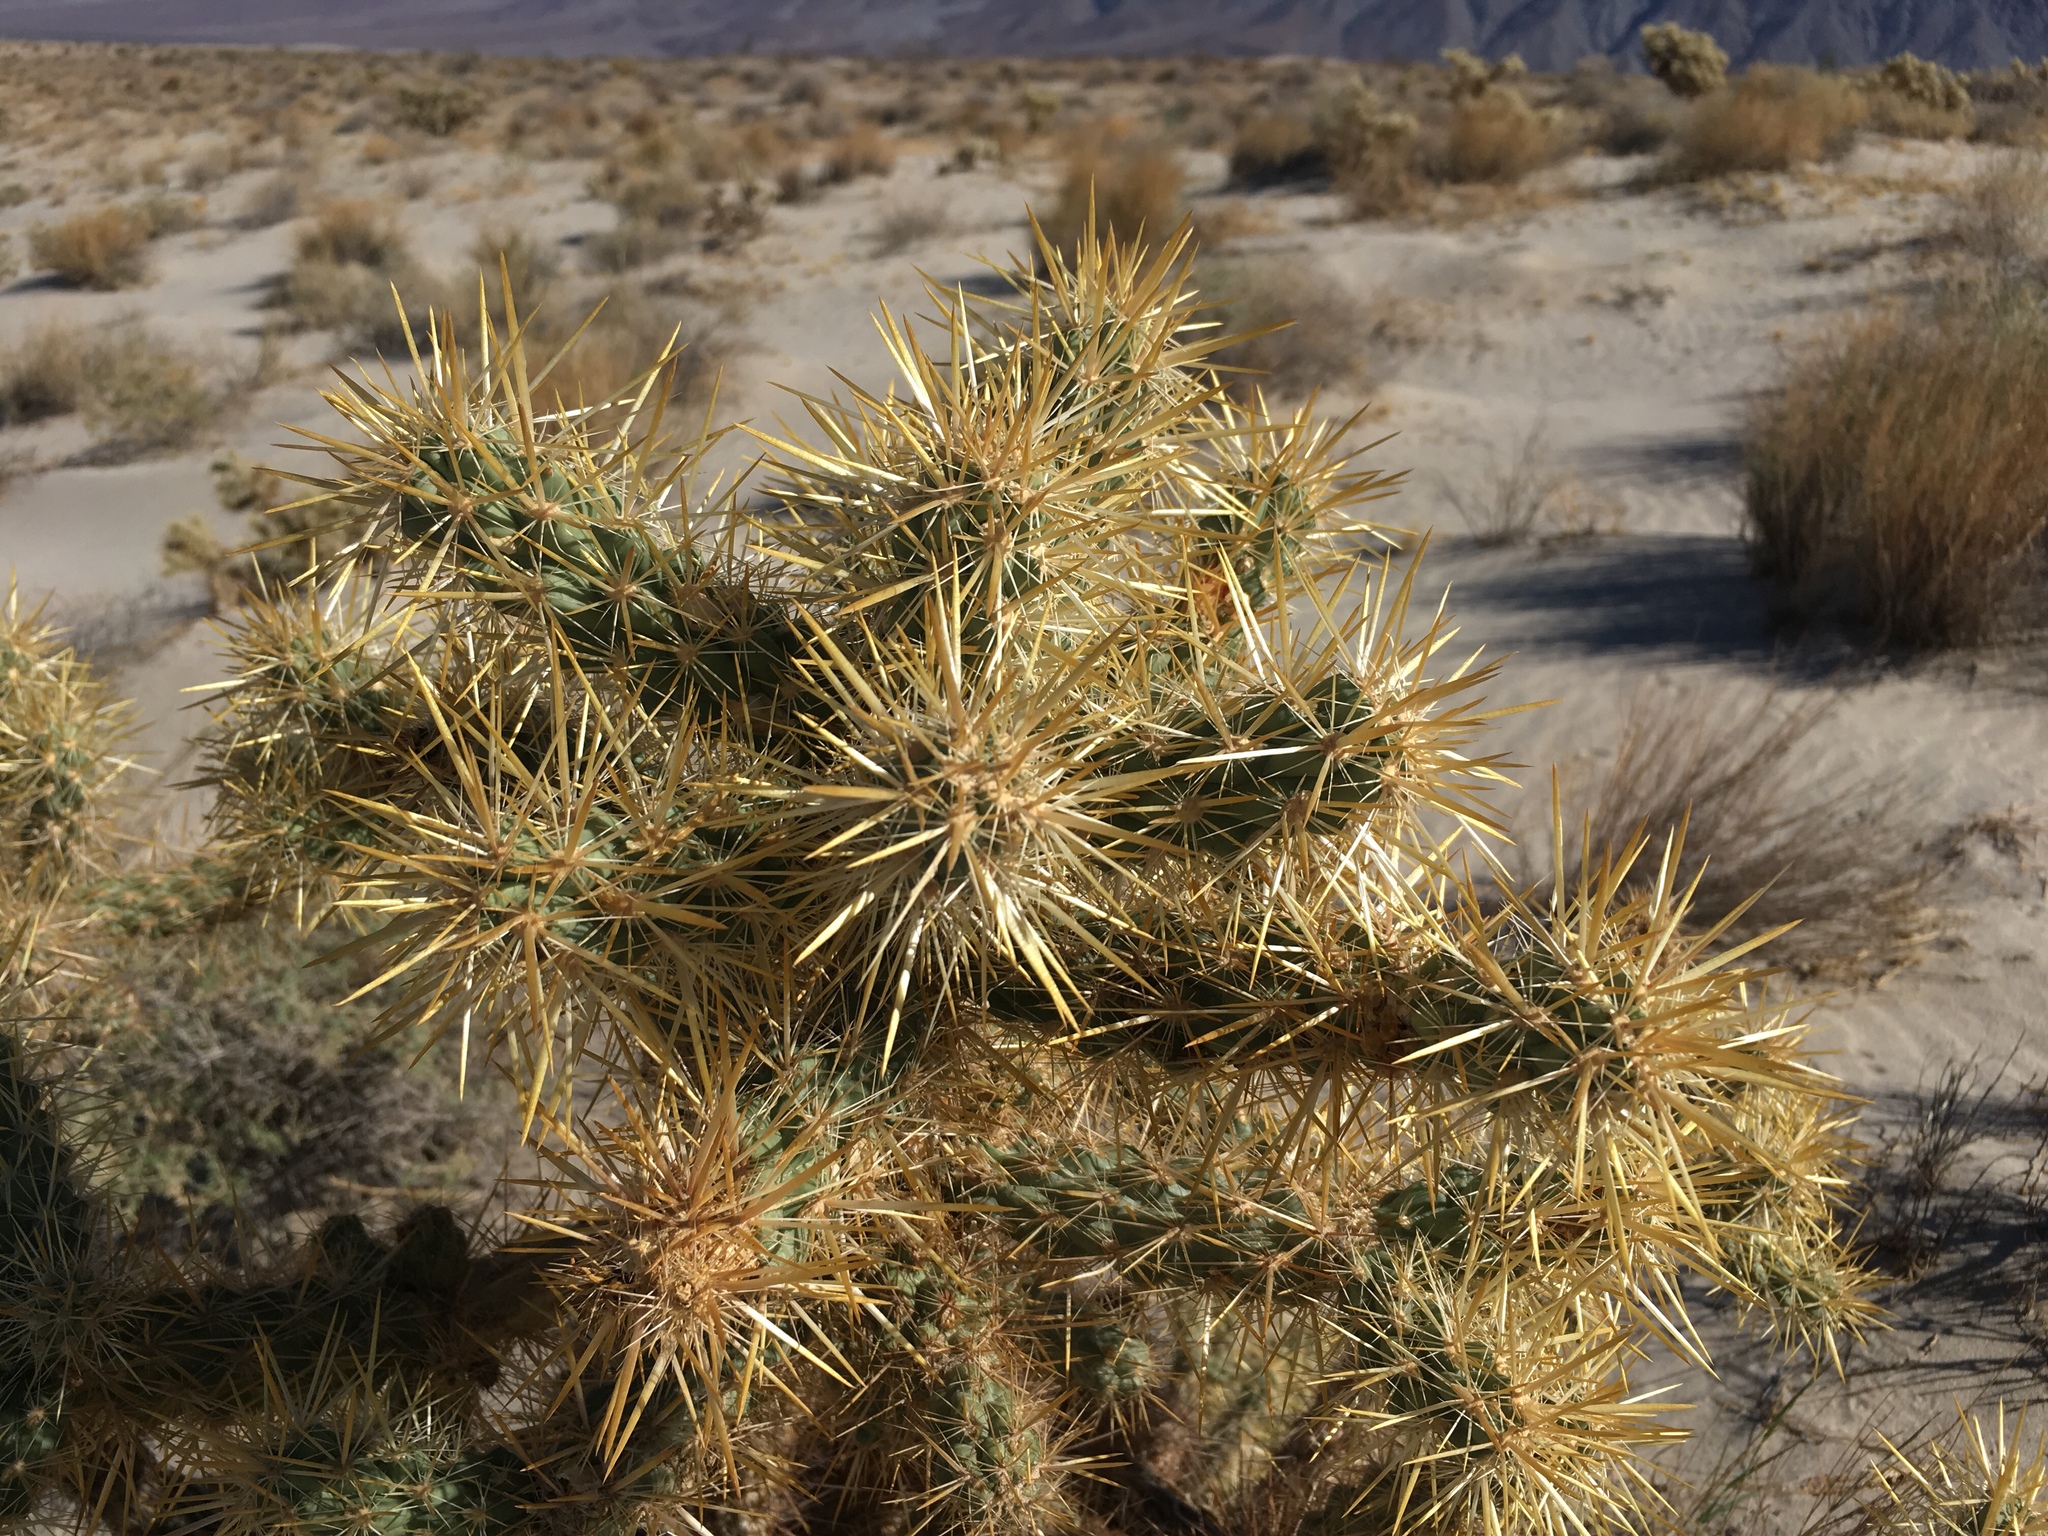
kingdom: Plantae
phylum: Tracheophyta
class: Magnoliopsida
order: Caryophyllales
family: Cactaceae
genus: Cylindropuntia
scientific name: Cylindropuntia echinocarpa
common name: Ground cholla
